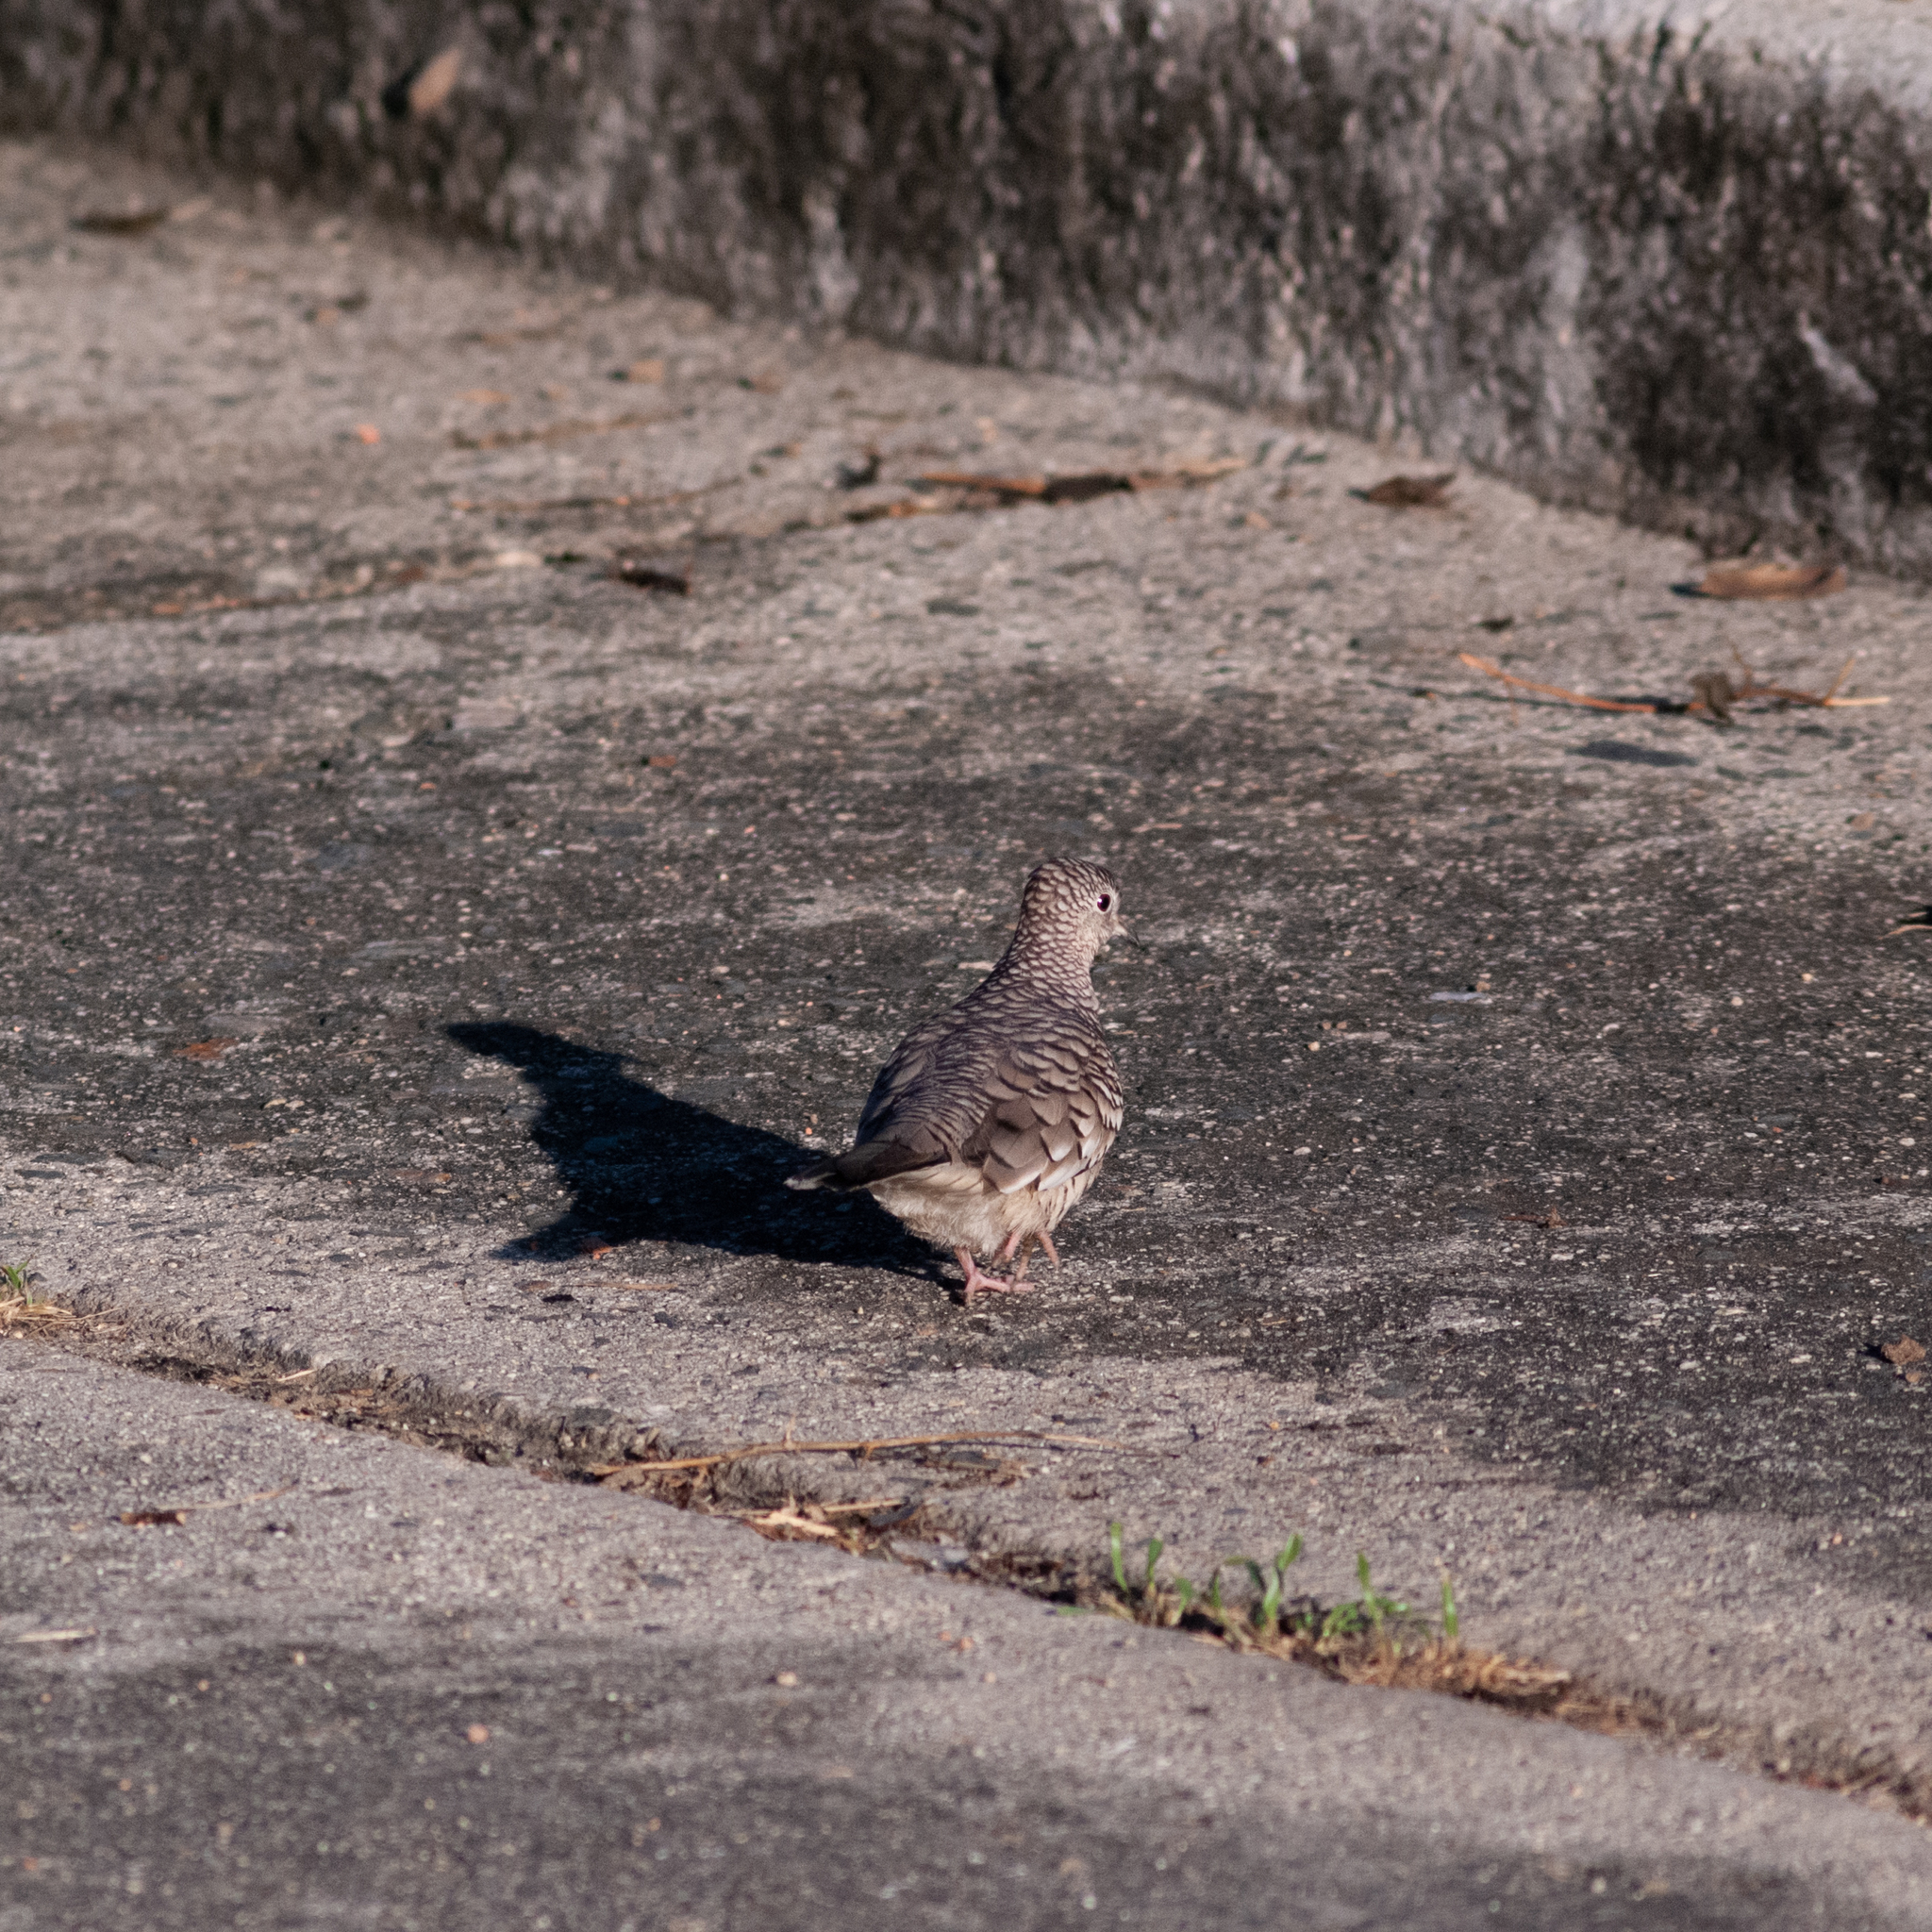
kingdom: Animalia
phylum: Chordata
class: Aves
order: Columbiformes
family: Columbidae
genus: Columbina
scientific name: Columbina squammata
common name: Scaled dove
